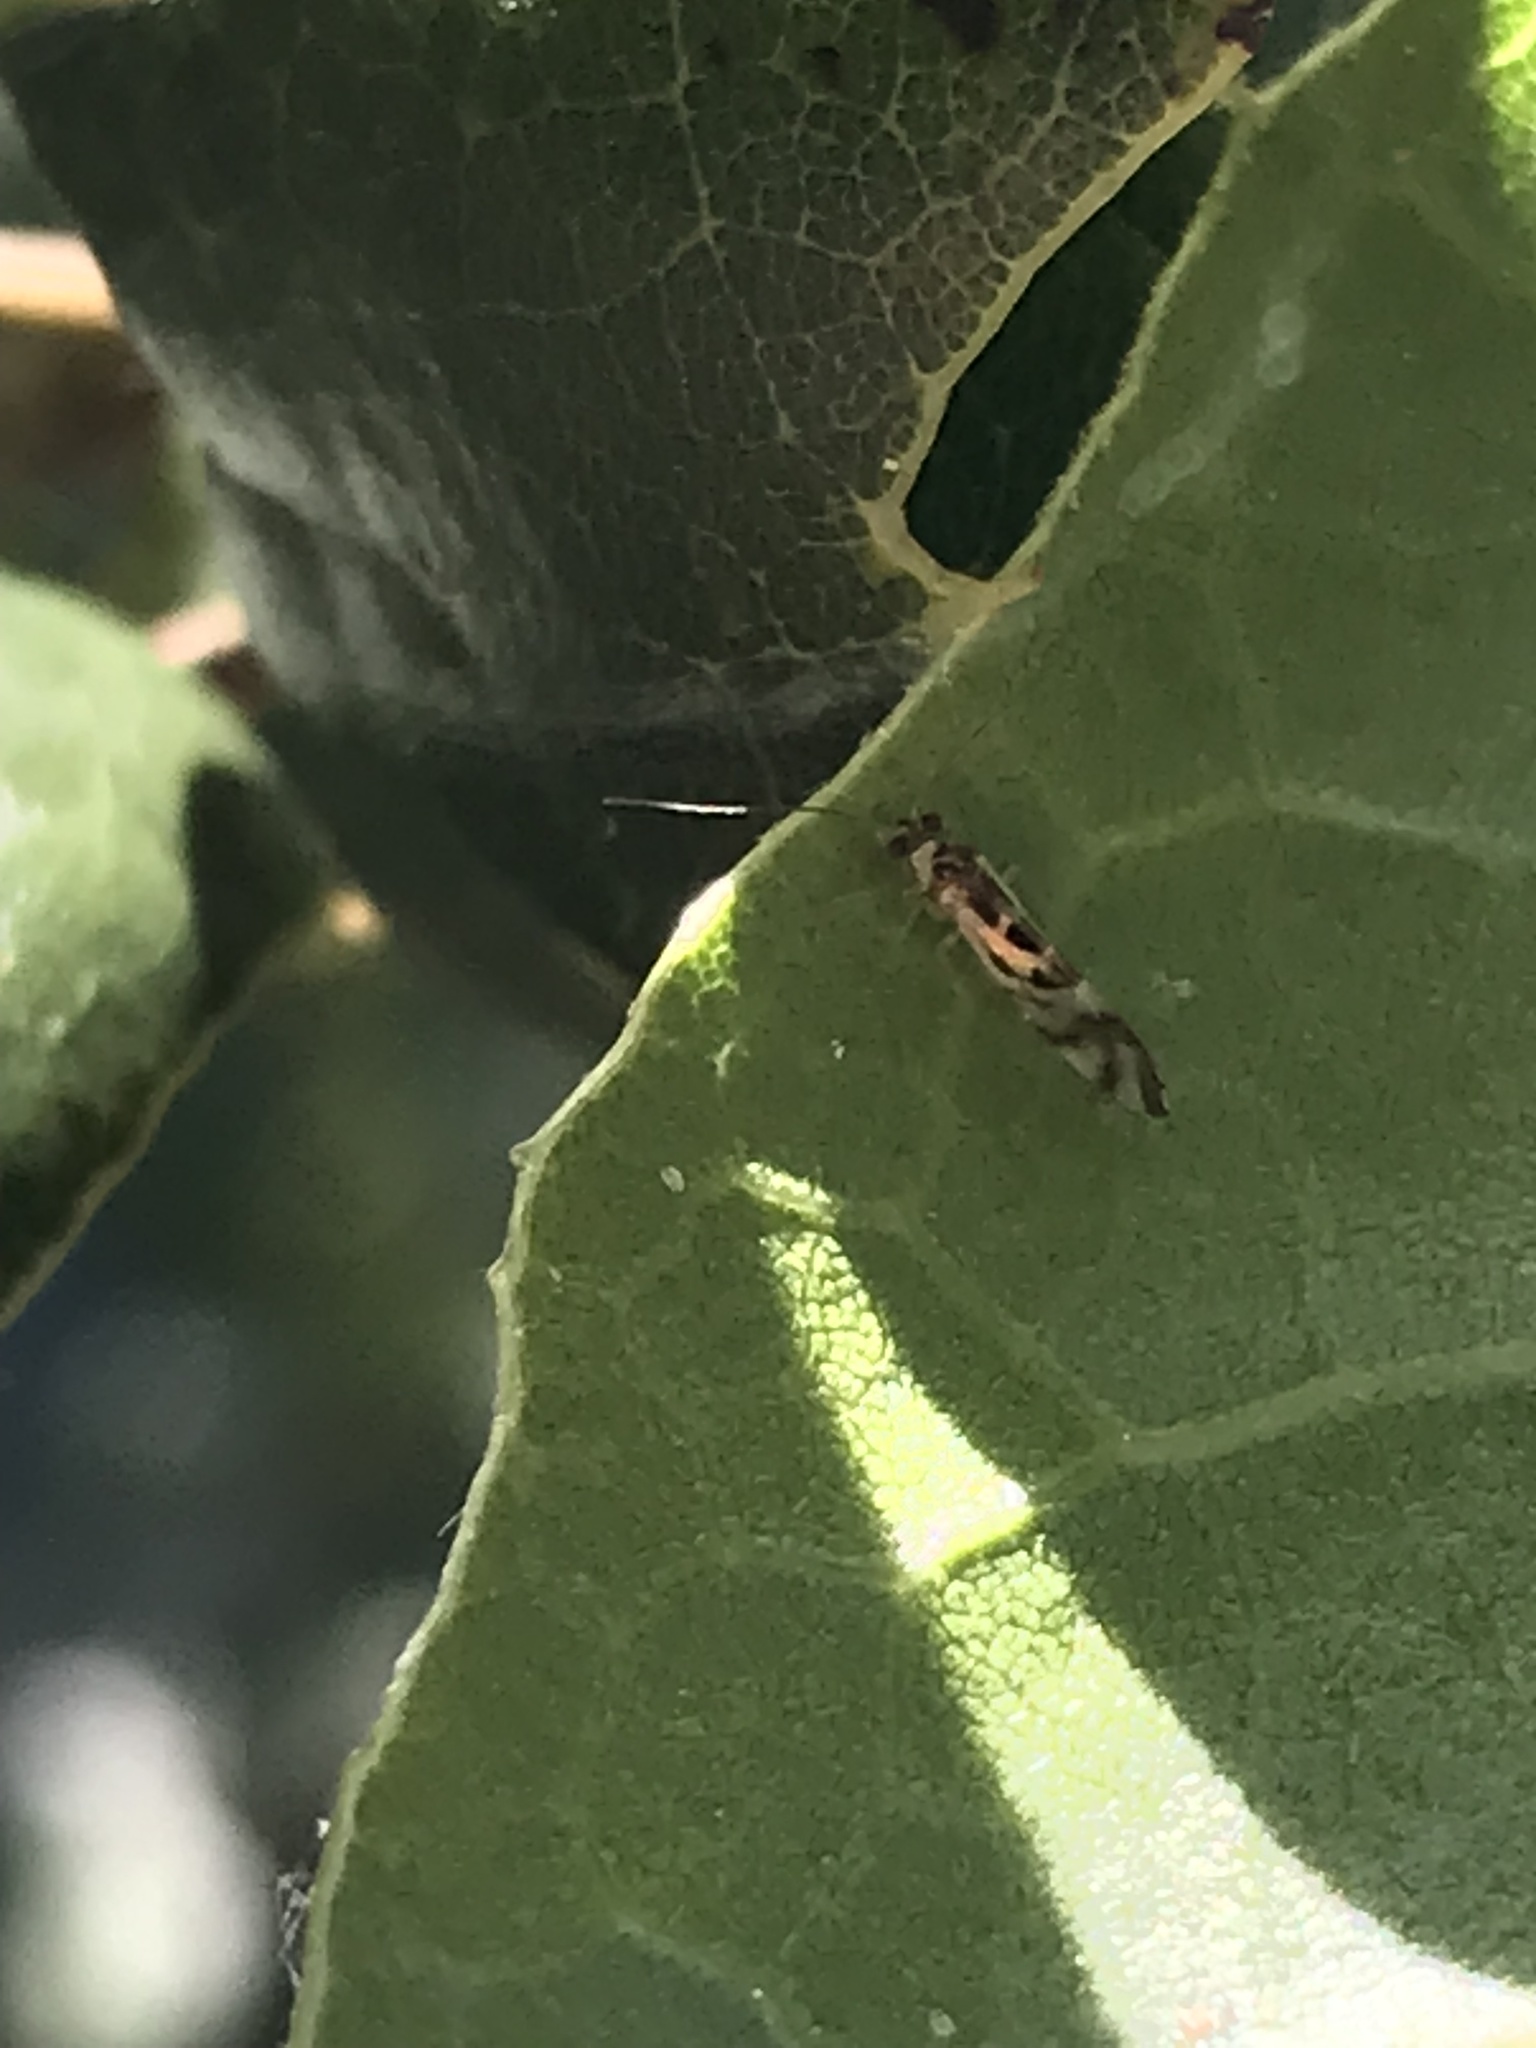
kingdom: Animalia
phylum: Arthropoda
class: Insecta
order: Psocodea
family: Stenopsocidae
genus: Graphopsocus
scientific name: Graphopsocus cruciatus
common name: Lizard bark louse
